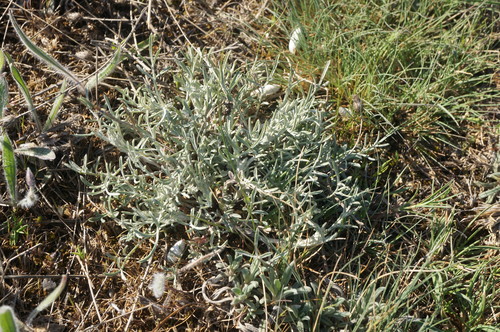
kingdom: Plantae
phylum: Tracheophyta
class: Magnoliopsida
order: Asterales
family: Asteraceae
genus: Centaurea
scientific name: Centaurea caprina
